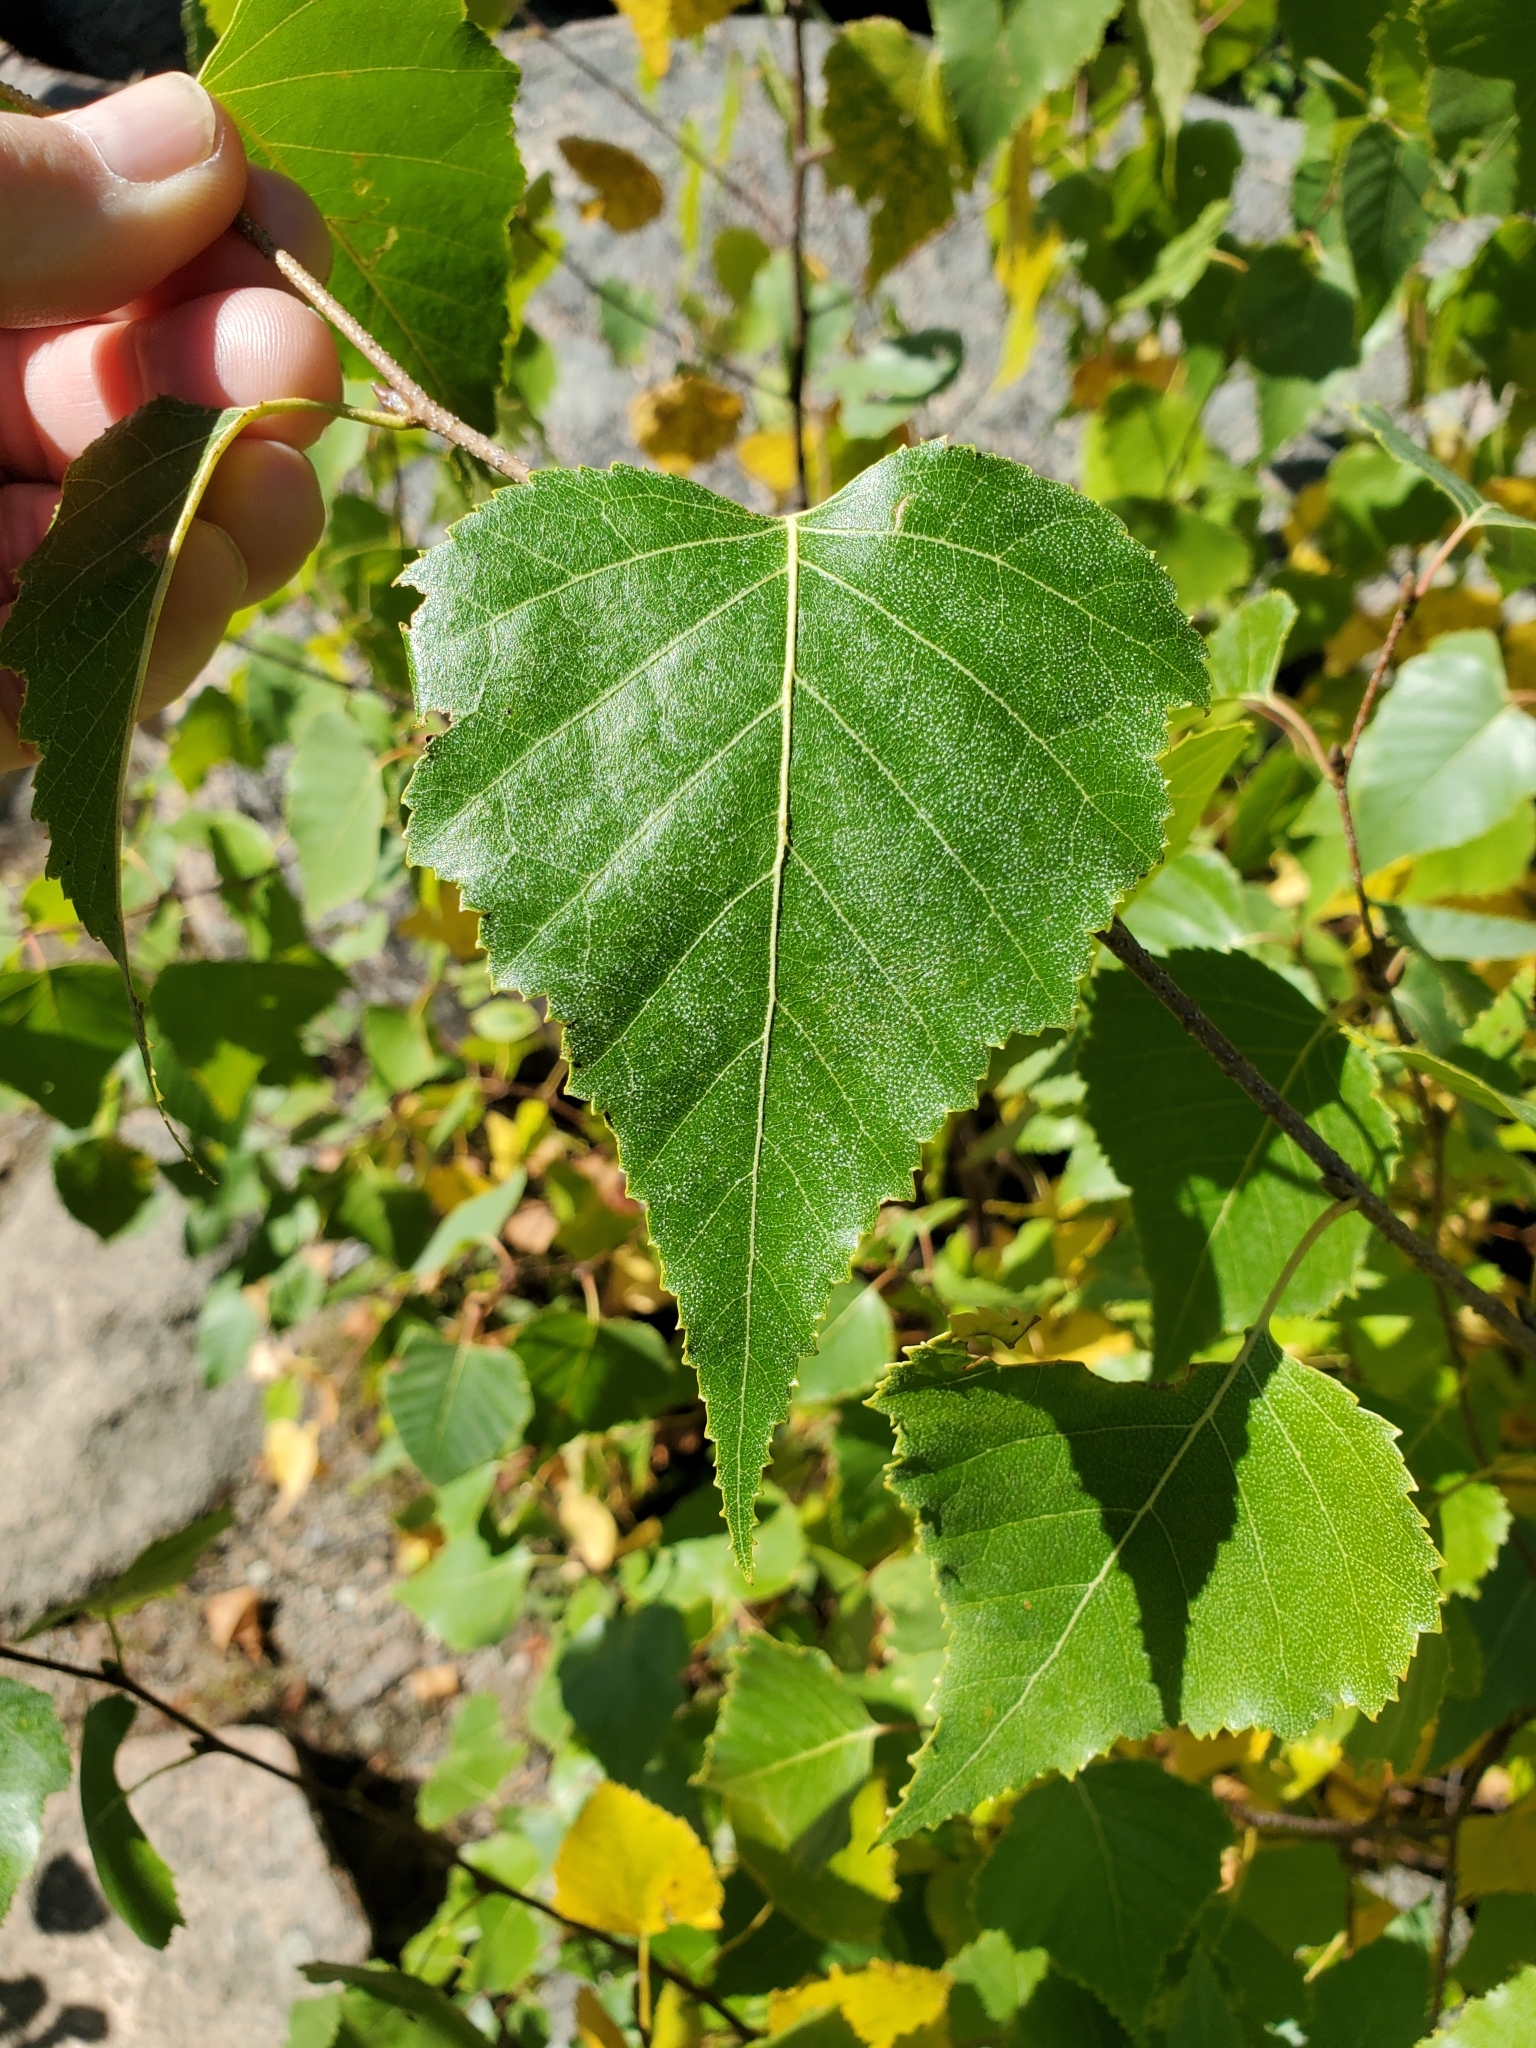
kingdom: Plantae
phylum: Tracheophyta
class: Magnoliopsida
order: Fagales
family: Betulaceae
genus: Betula
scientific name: Betula populifolia
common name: Fire birch
